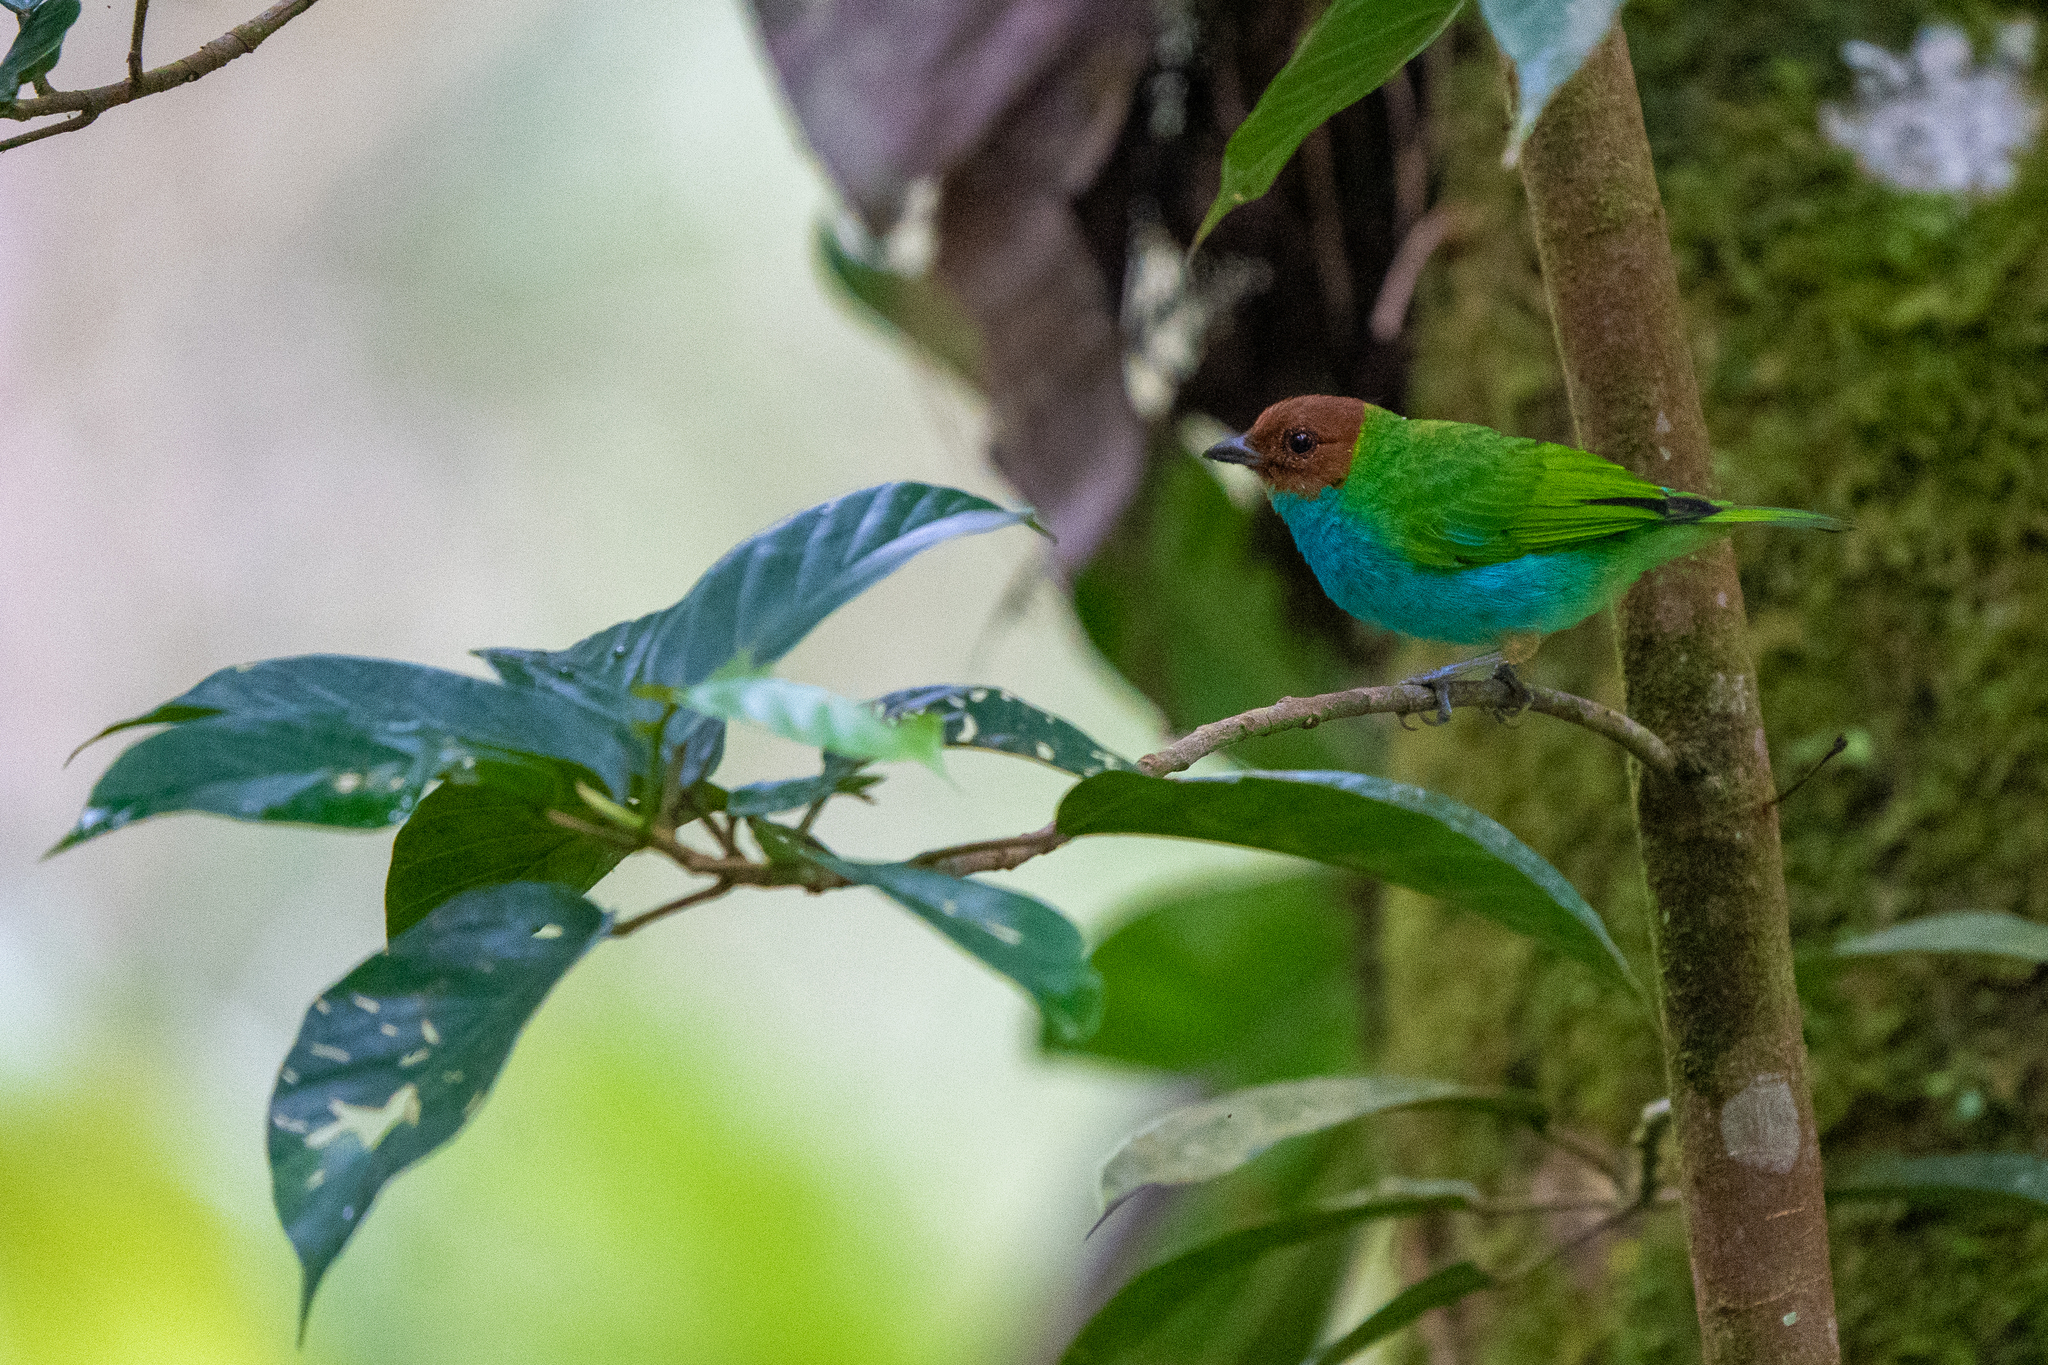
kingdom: Animalia
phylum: Chordata
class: Aves
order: Passeriformes
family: Thraupidae
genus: Tangara
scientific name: Tangara gyrola
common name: Bay-headed tanager
